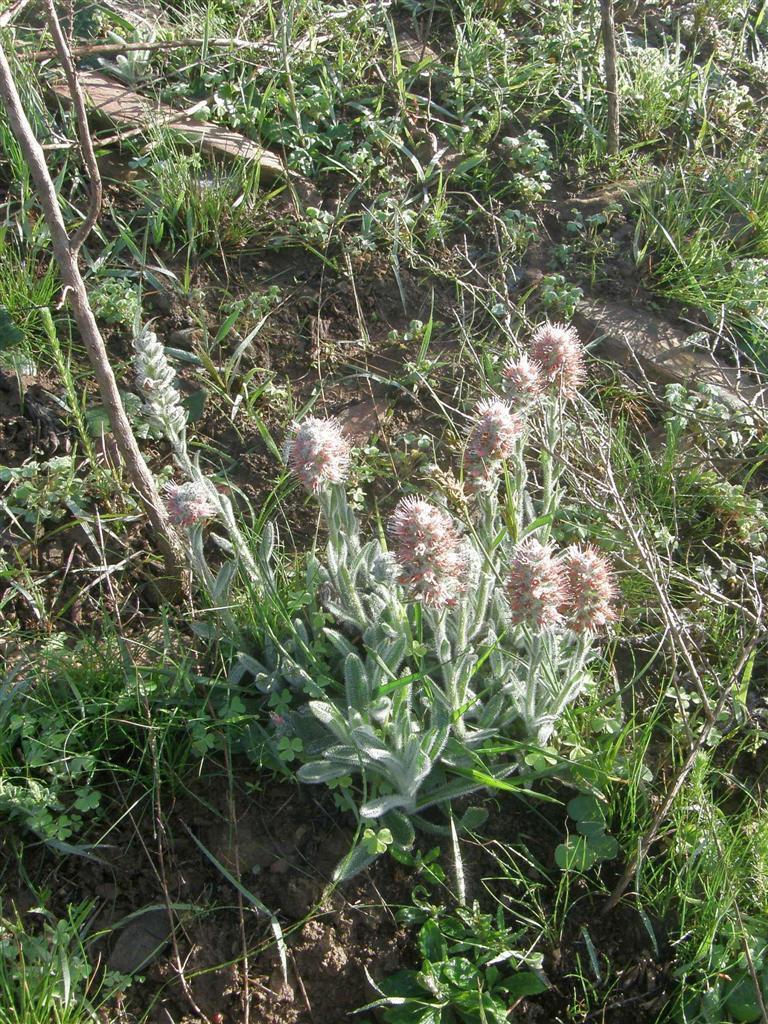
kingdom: Plantae
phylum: Tracheophyta
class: Magnoliopsida
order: Boraginales
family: Boraginaceae
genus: Lobostemon
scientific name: Lobostemon ecklonianus
